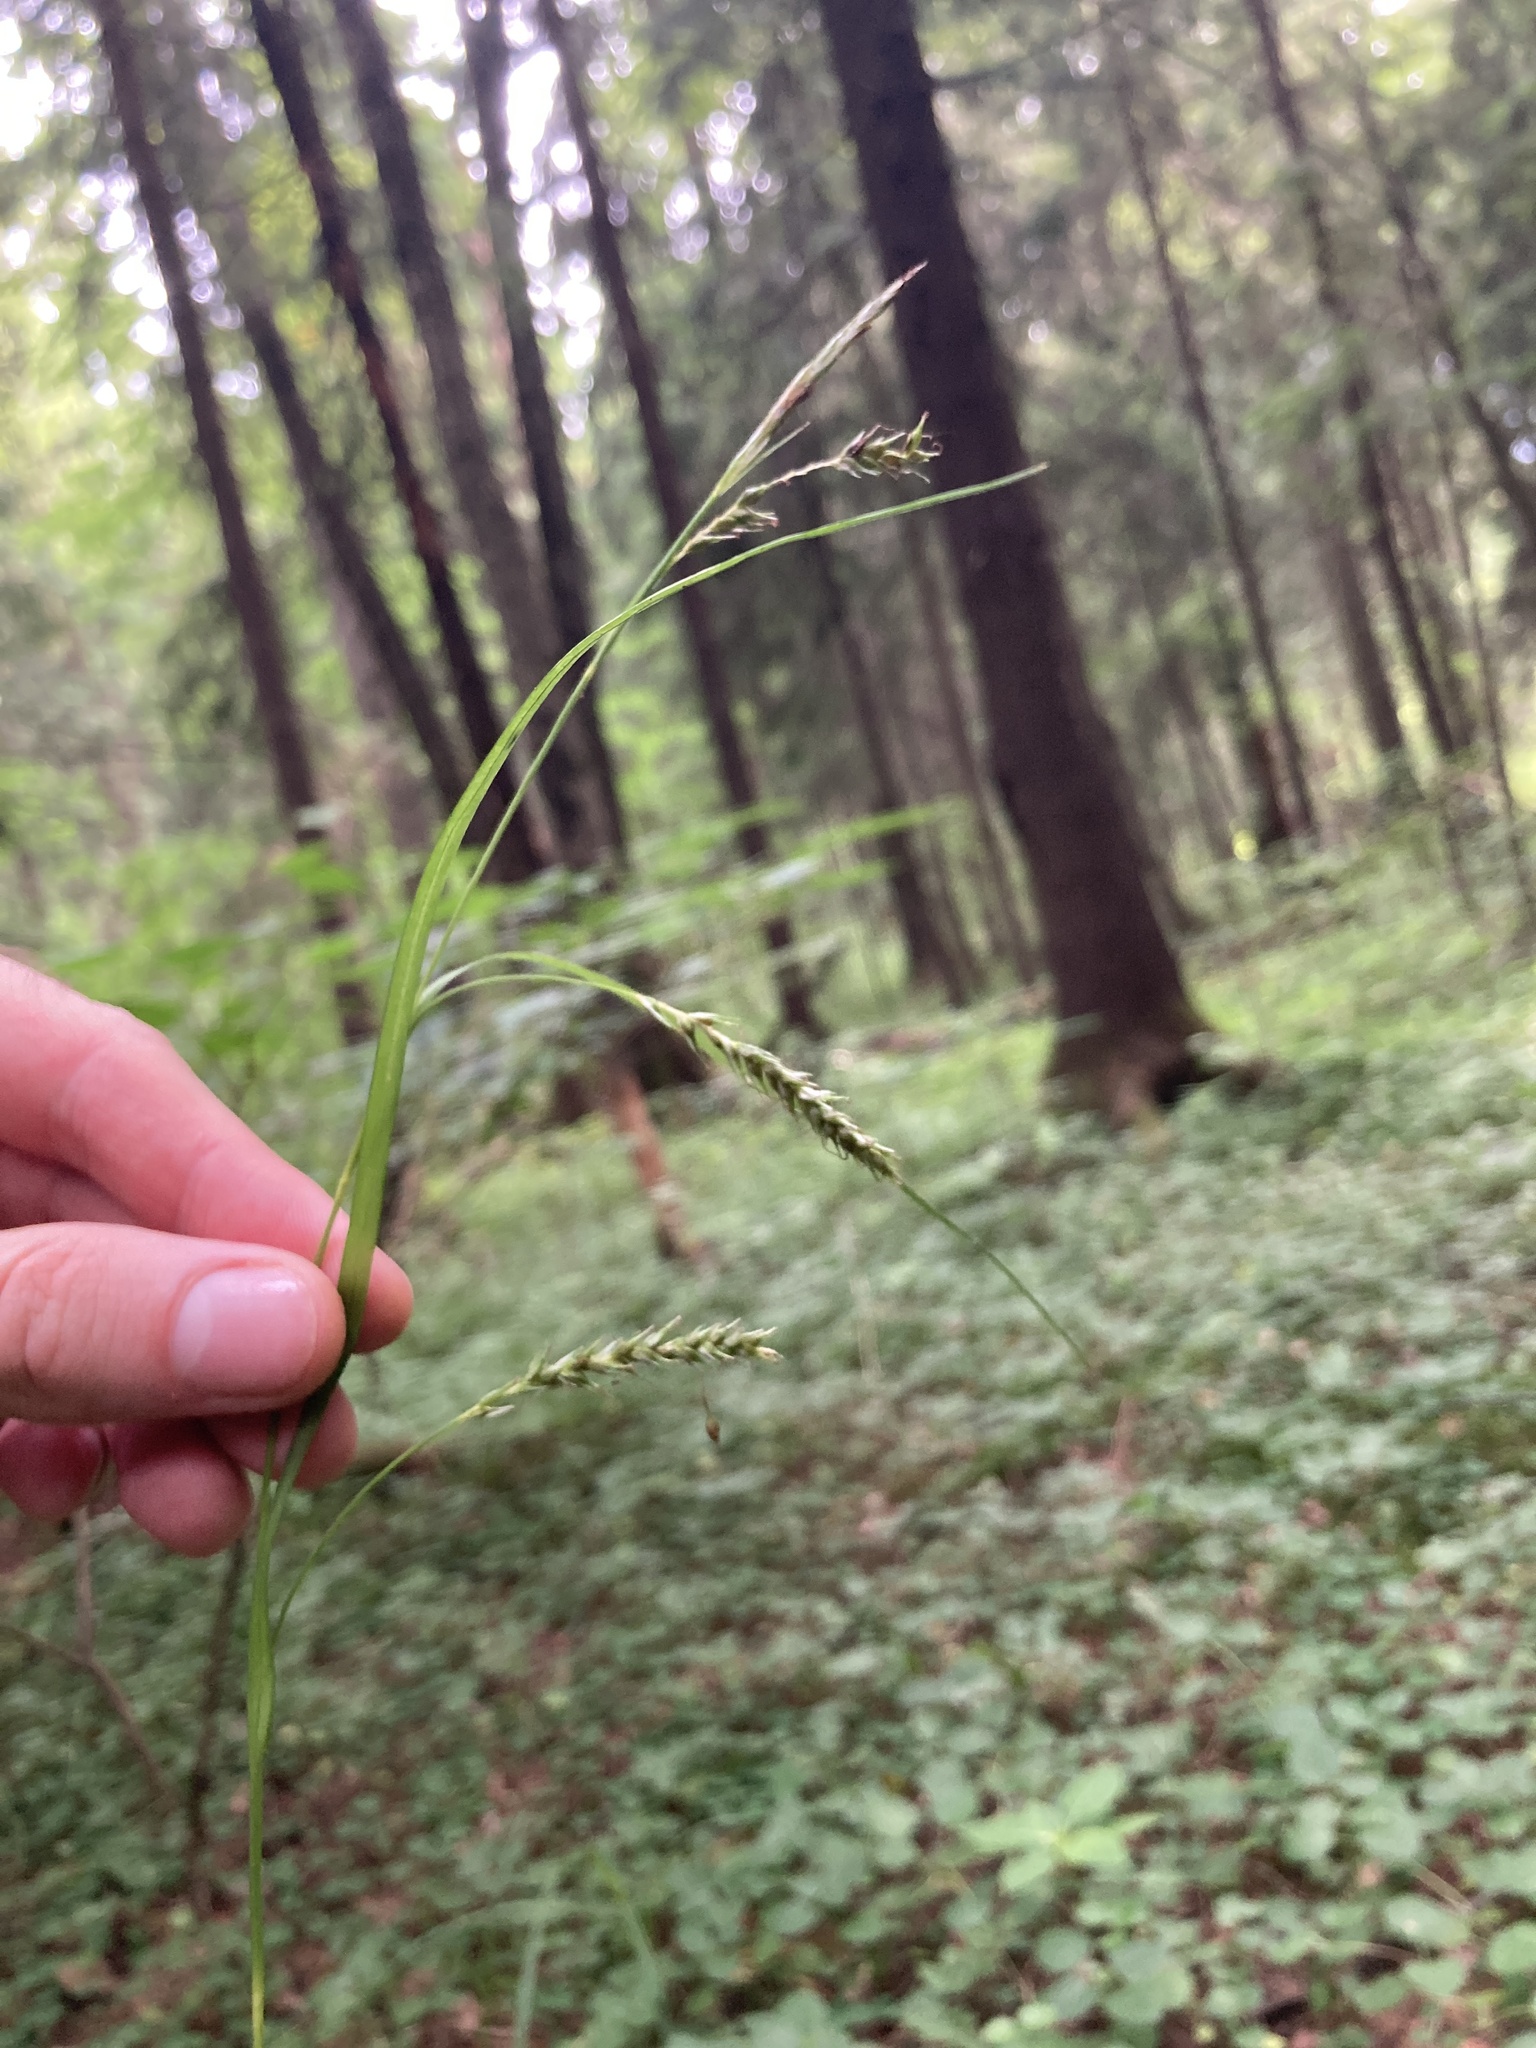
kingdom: Plantae
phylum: Tracheophyta
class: Liliopsida
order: Poales
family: Cyperaceae
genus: Carex
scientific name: Carex sylvatica
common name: Wood-sedge
